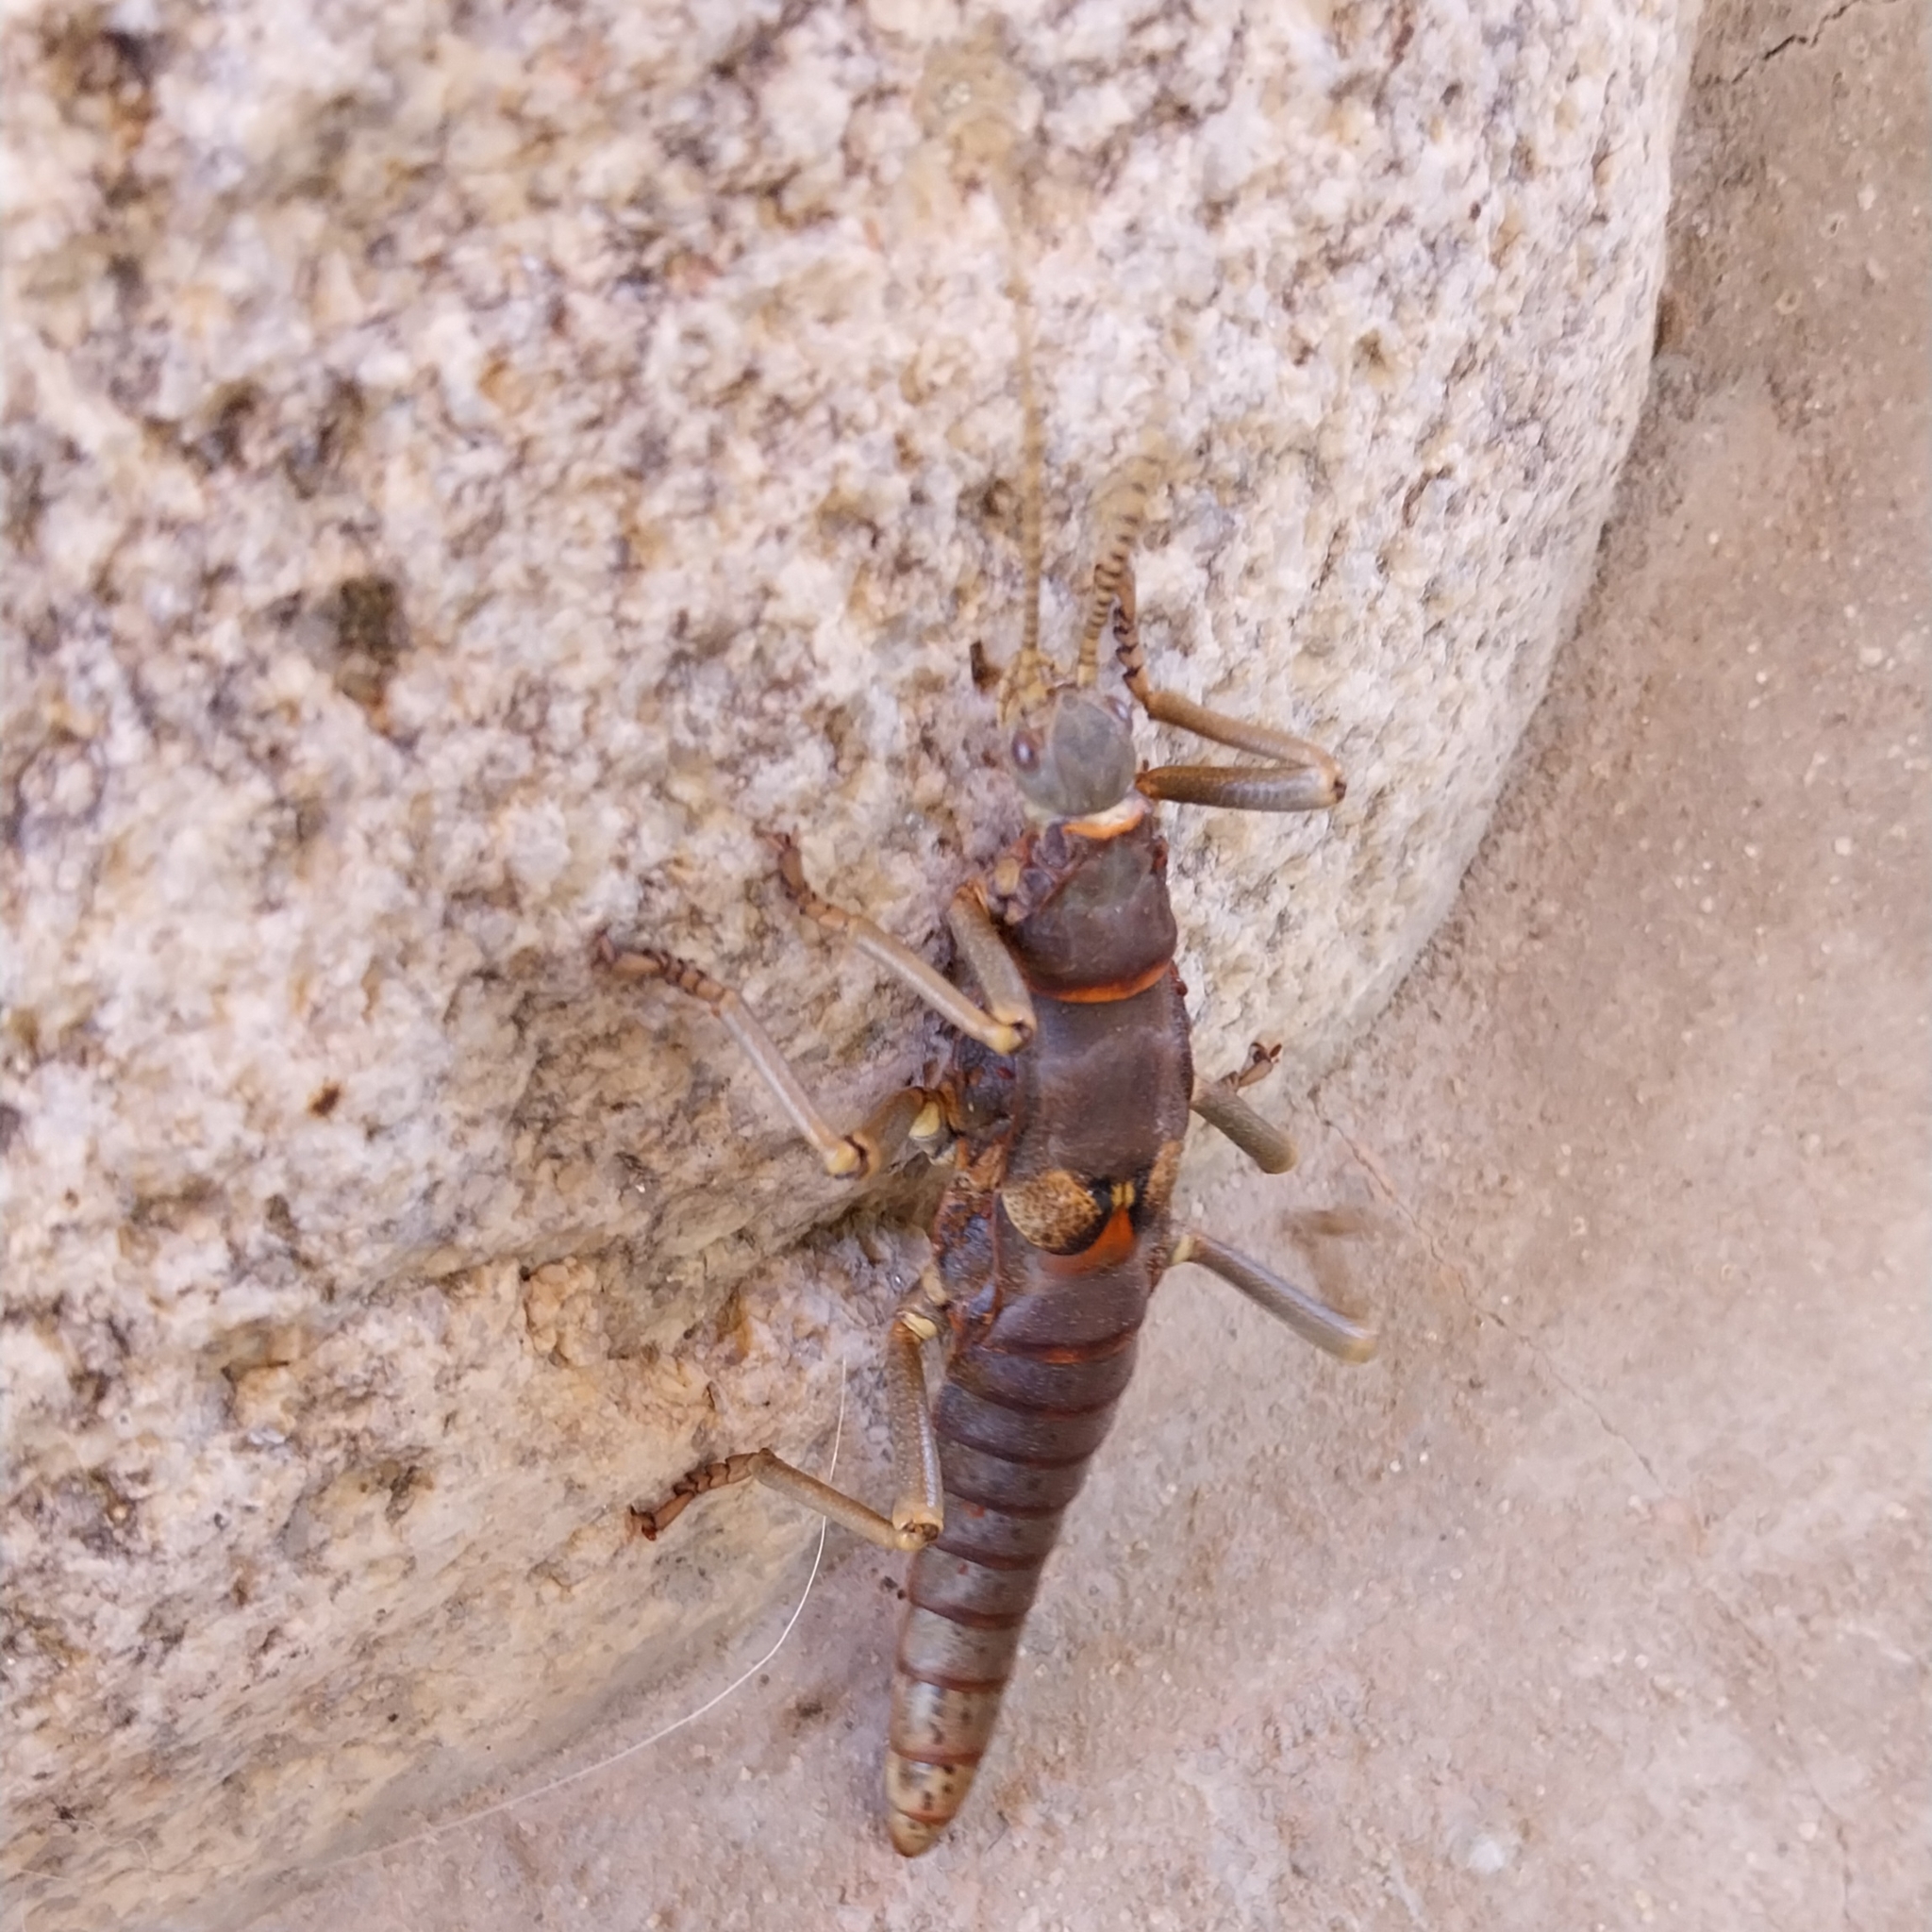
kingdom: Animalia
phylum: Arthropoda
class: Insecta
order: Phasmida
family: Agathemeridae
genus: Agathemera
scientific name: Agathemera luteola
